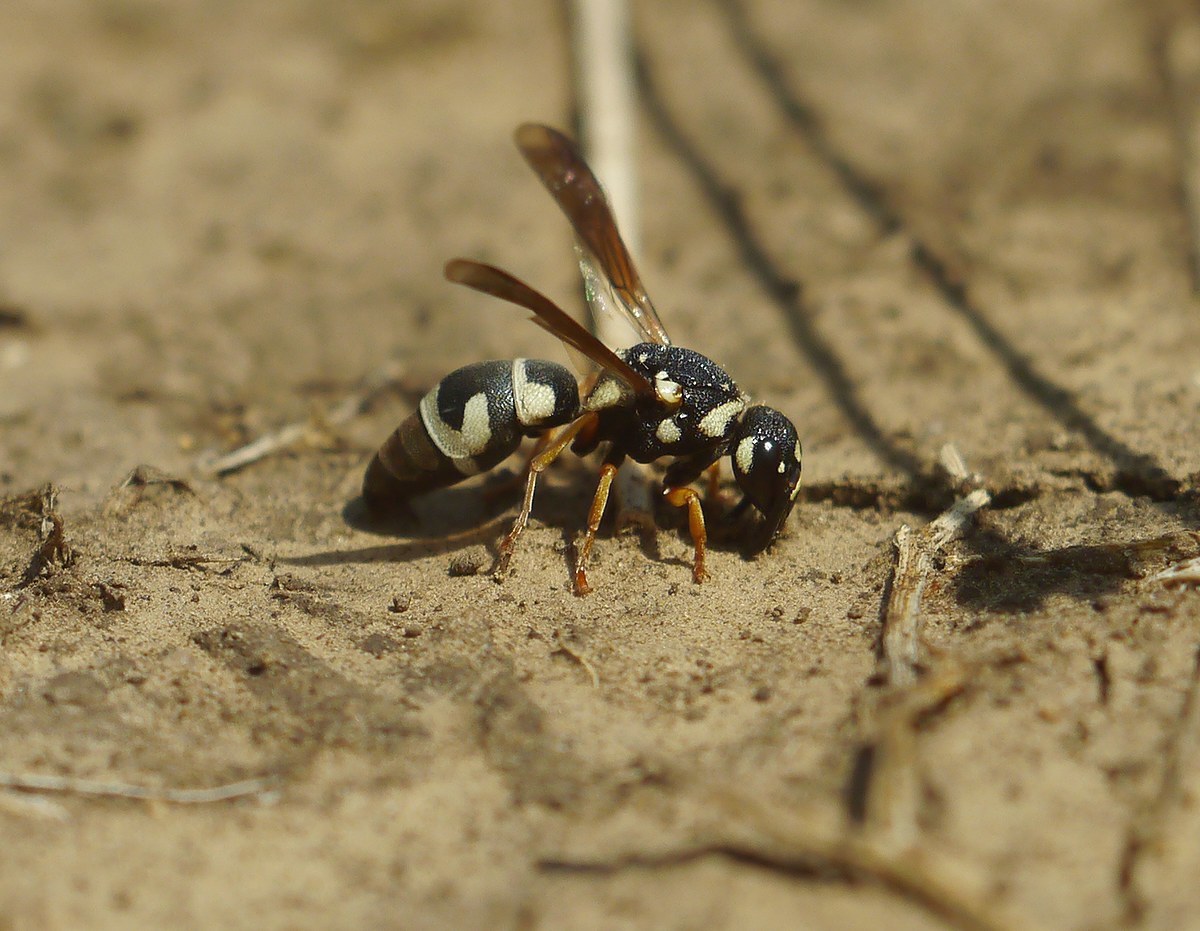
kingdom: Animalia
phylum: Arthropoda
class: Insecta
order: Hymenoptera
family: Eumenidae
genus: Parodontodynerus
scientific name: Parodontodynerus ephippium
